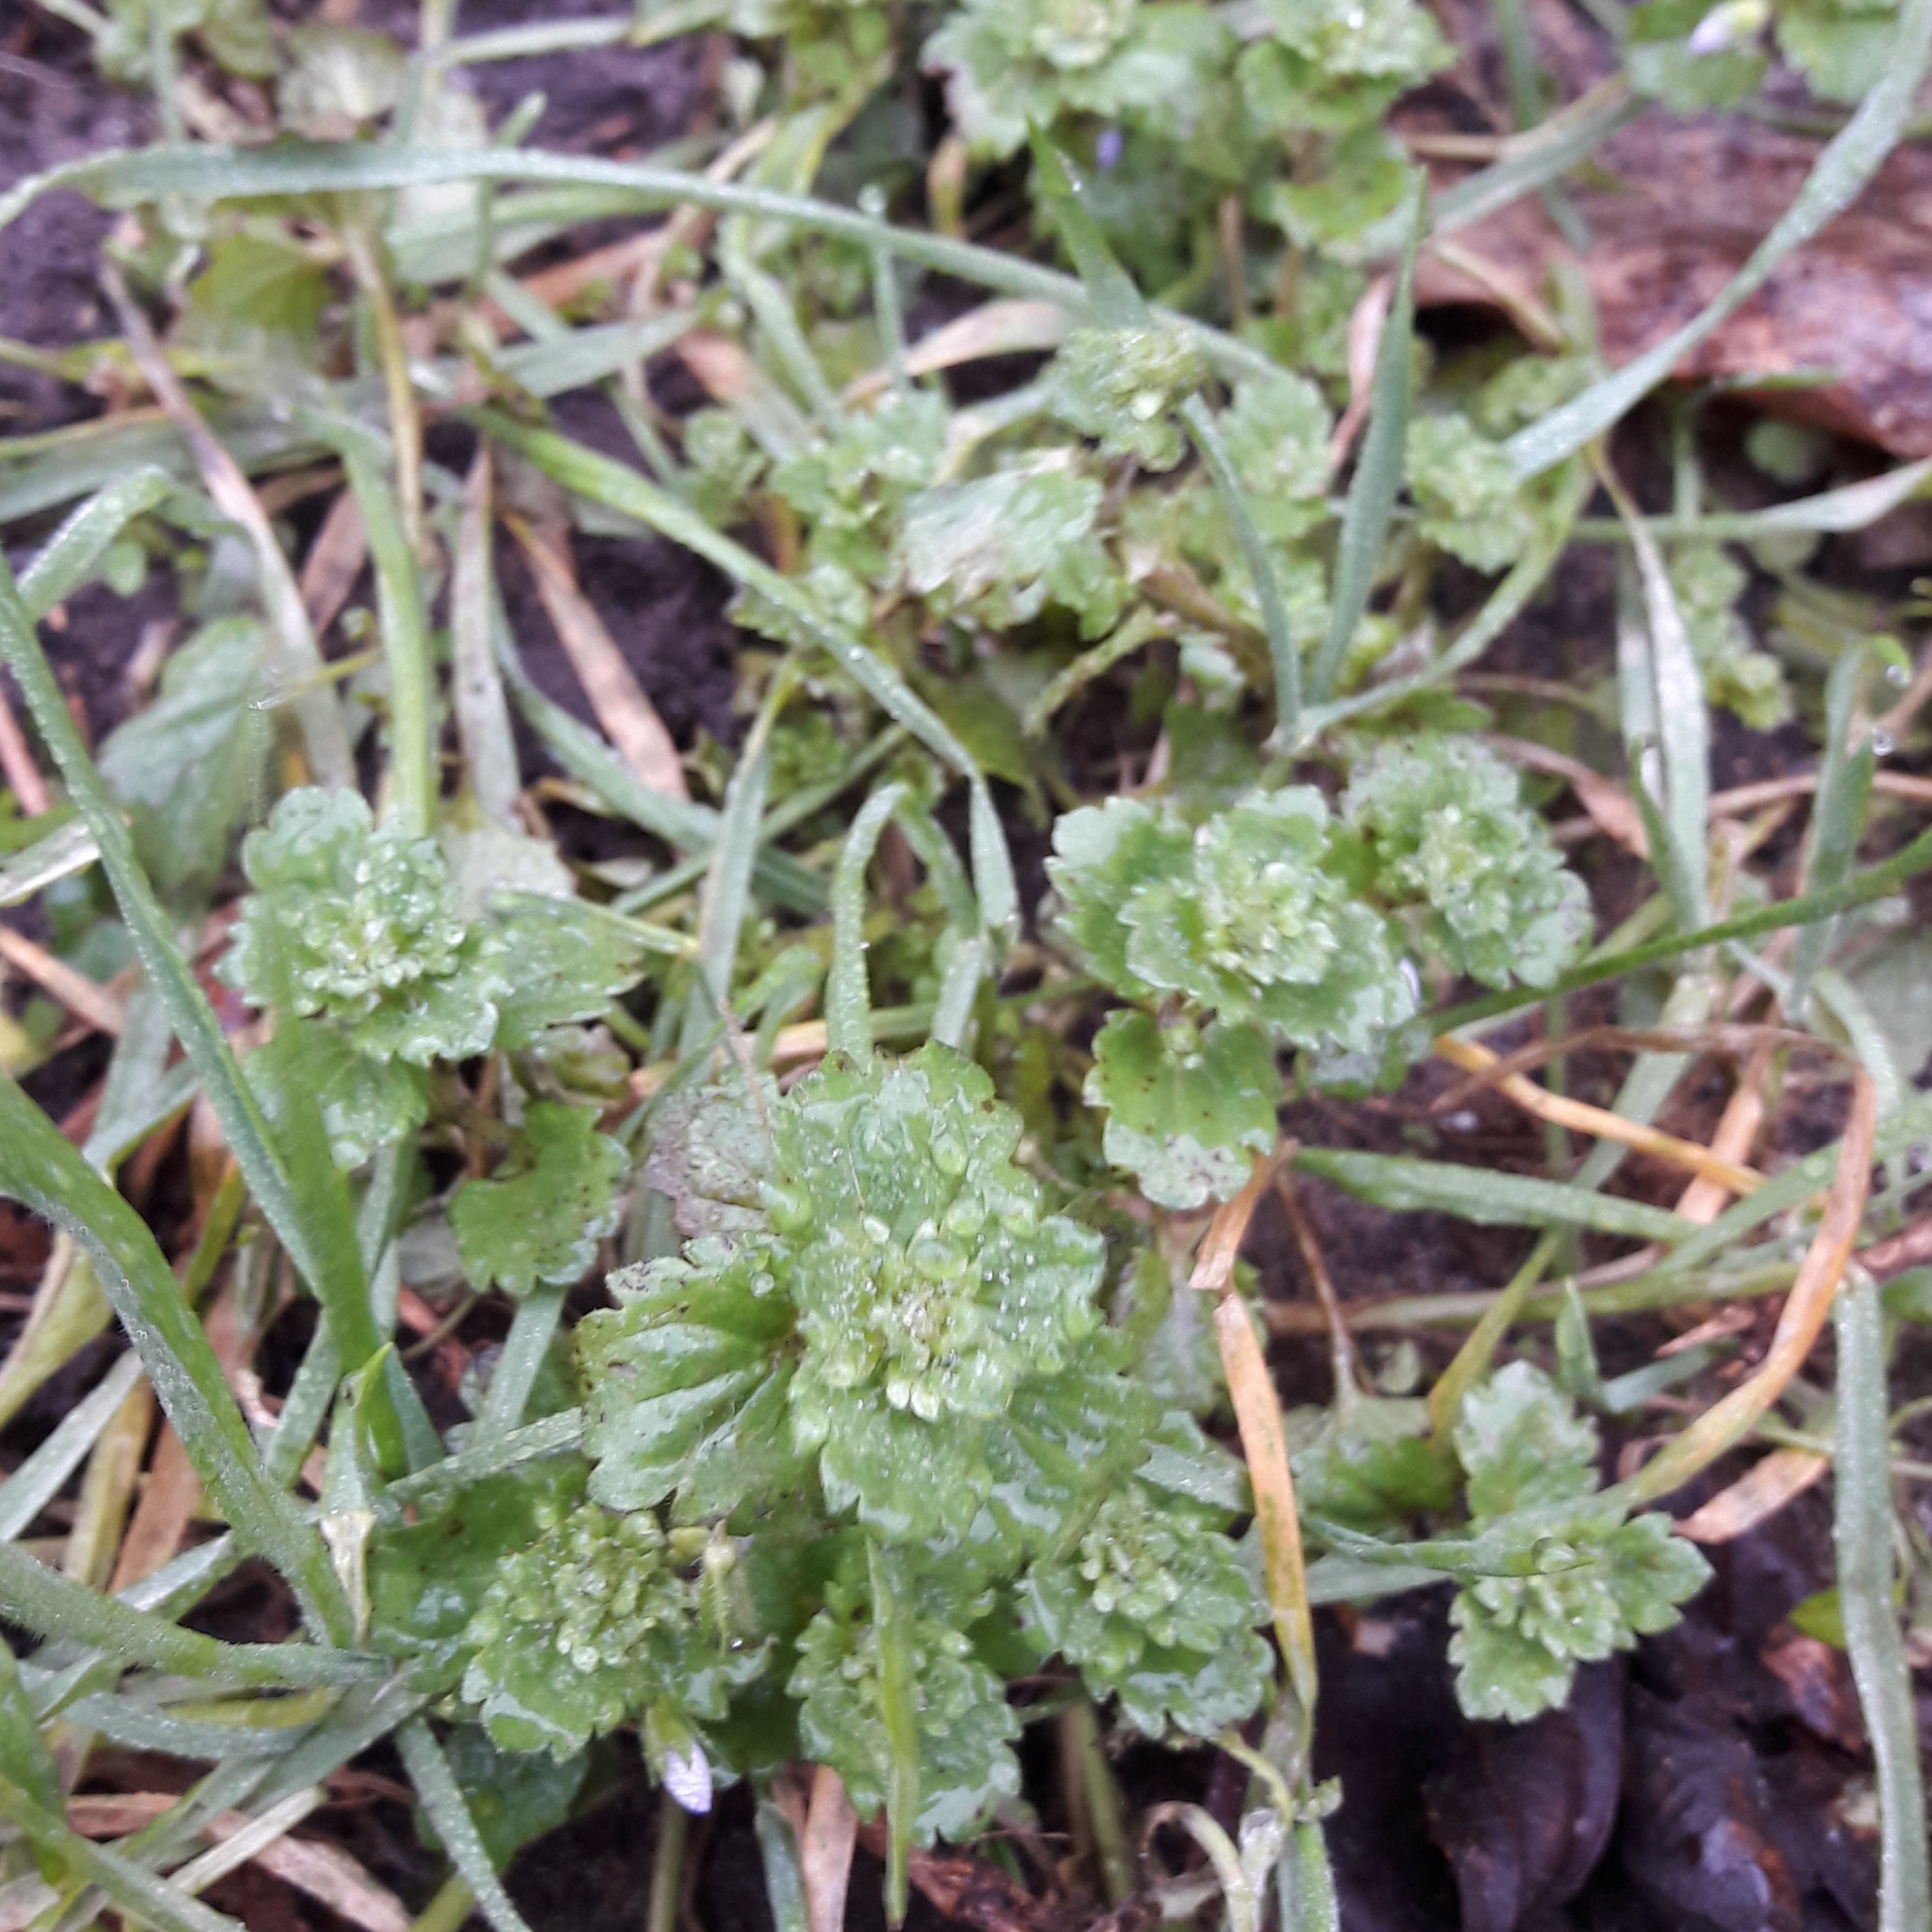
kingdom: Plantae
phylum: Tracheophyta
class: Magnoliopsida
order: Lamiales
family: Plantaginaceae
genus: Veronica
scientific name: Veronica persica
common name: Common field-speedwell
